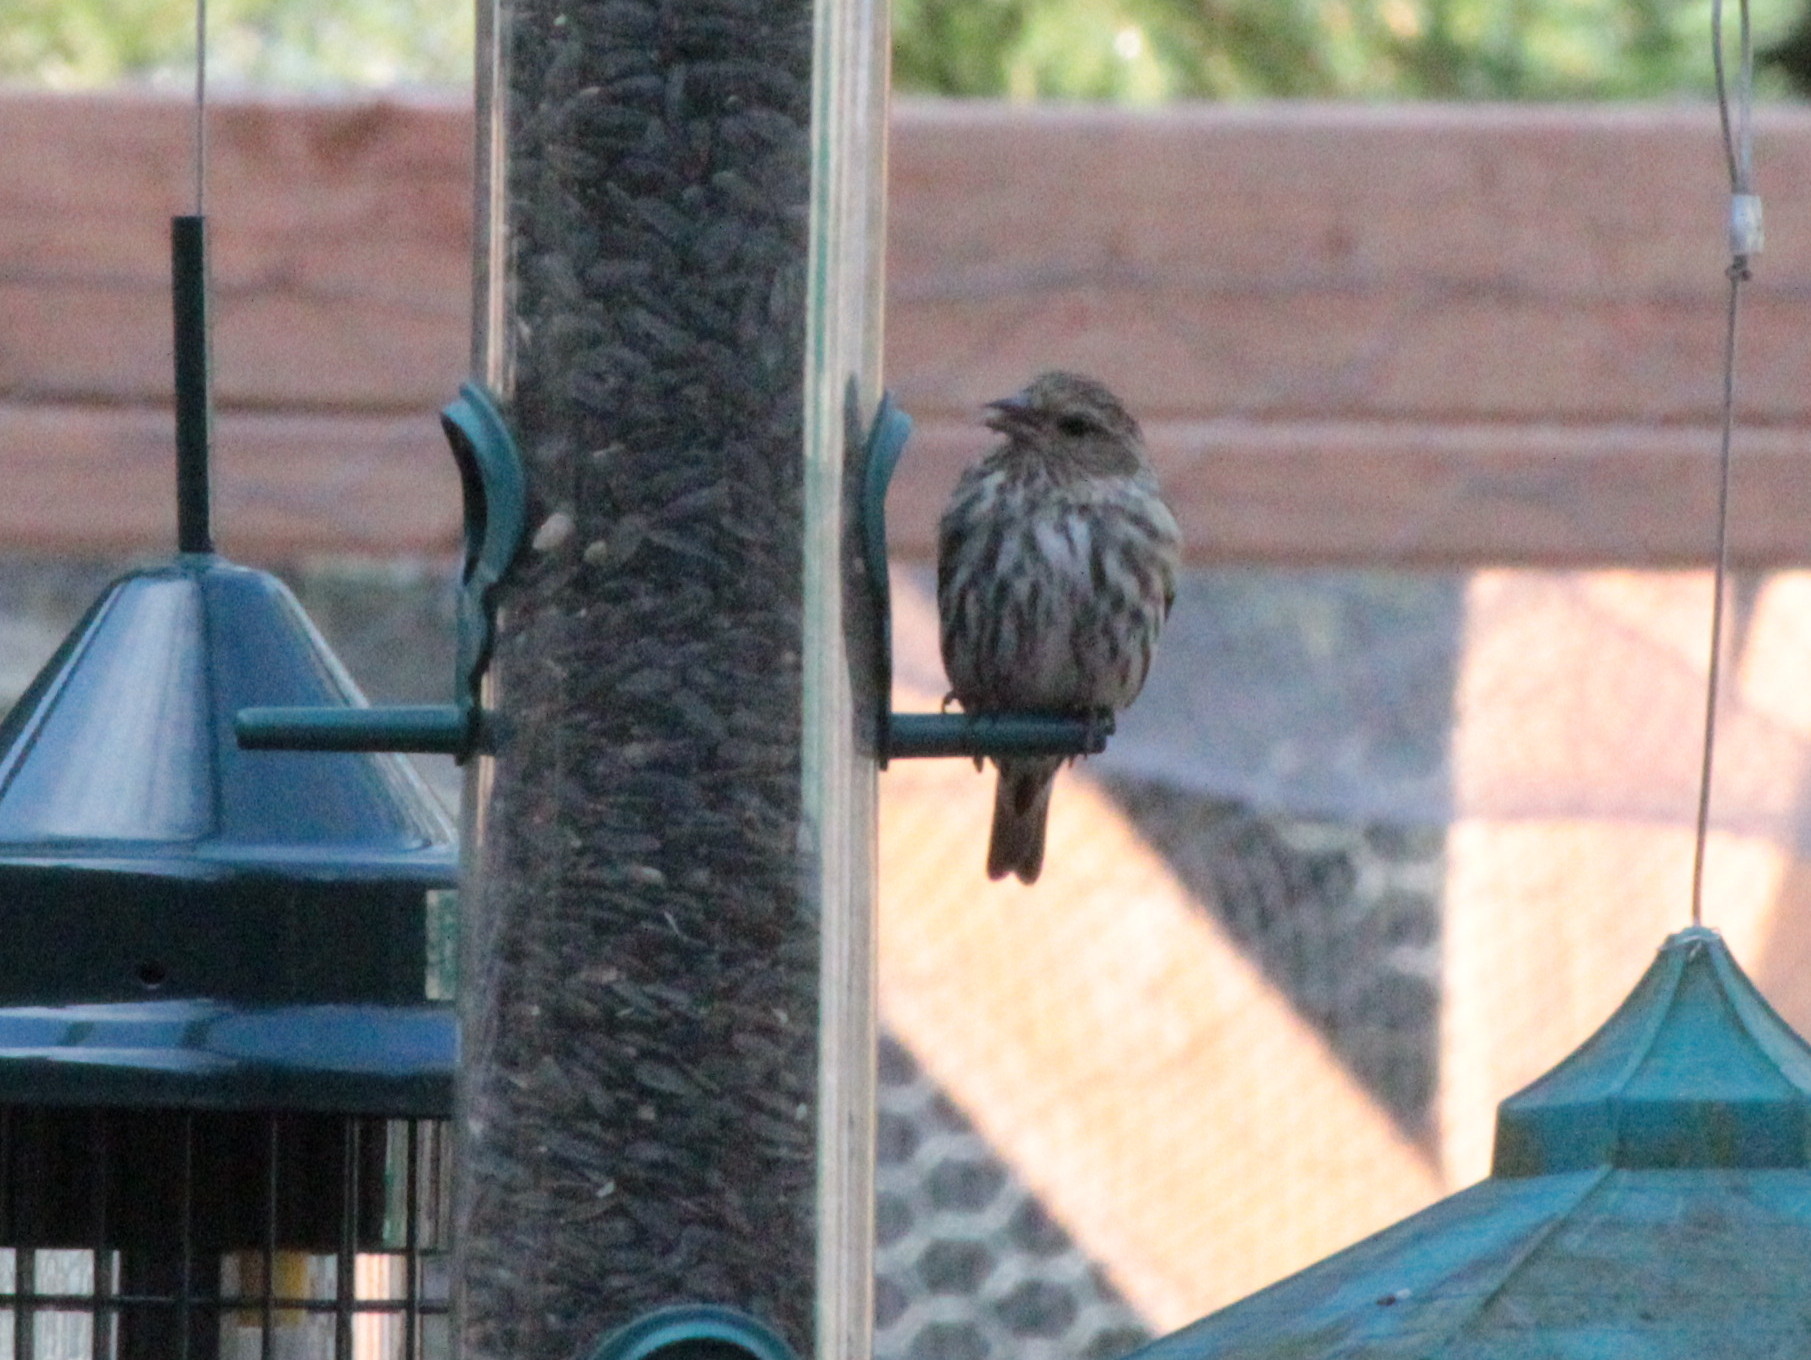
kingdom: Animalia
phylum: Chordata
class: Aves
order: Passeriformes
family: Fringillidae
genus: Spinus
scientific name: Spinus pinus
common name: Pine siskin
